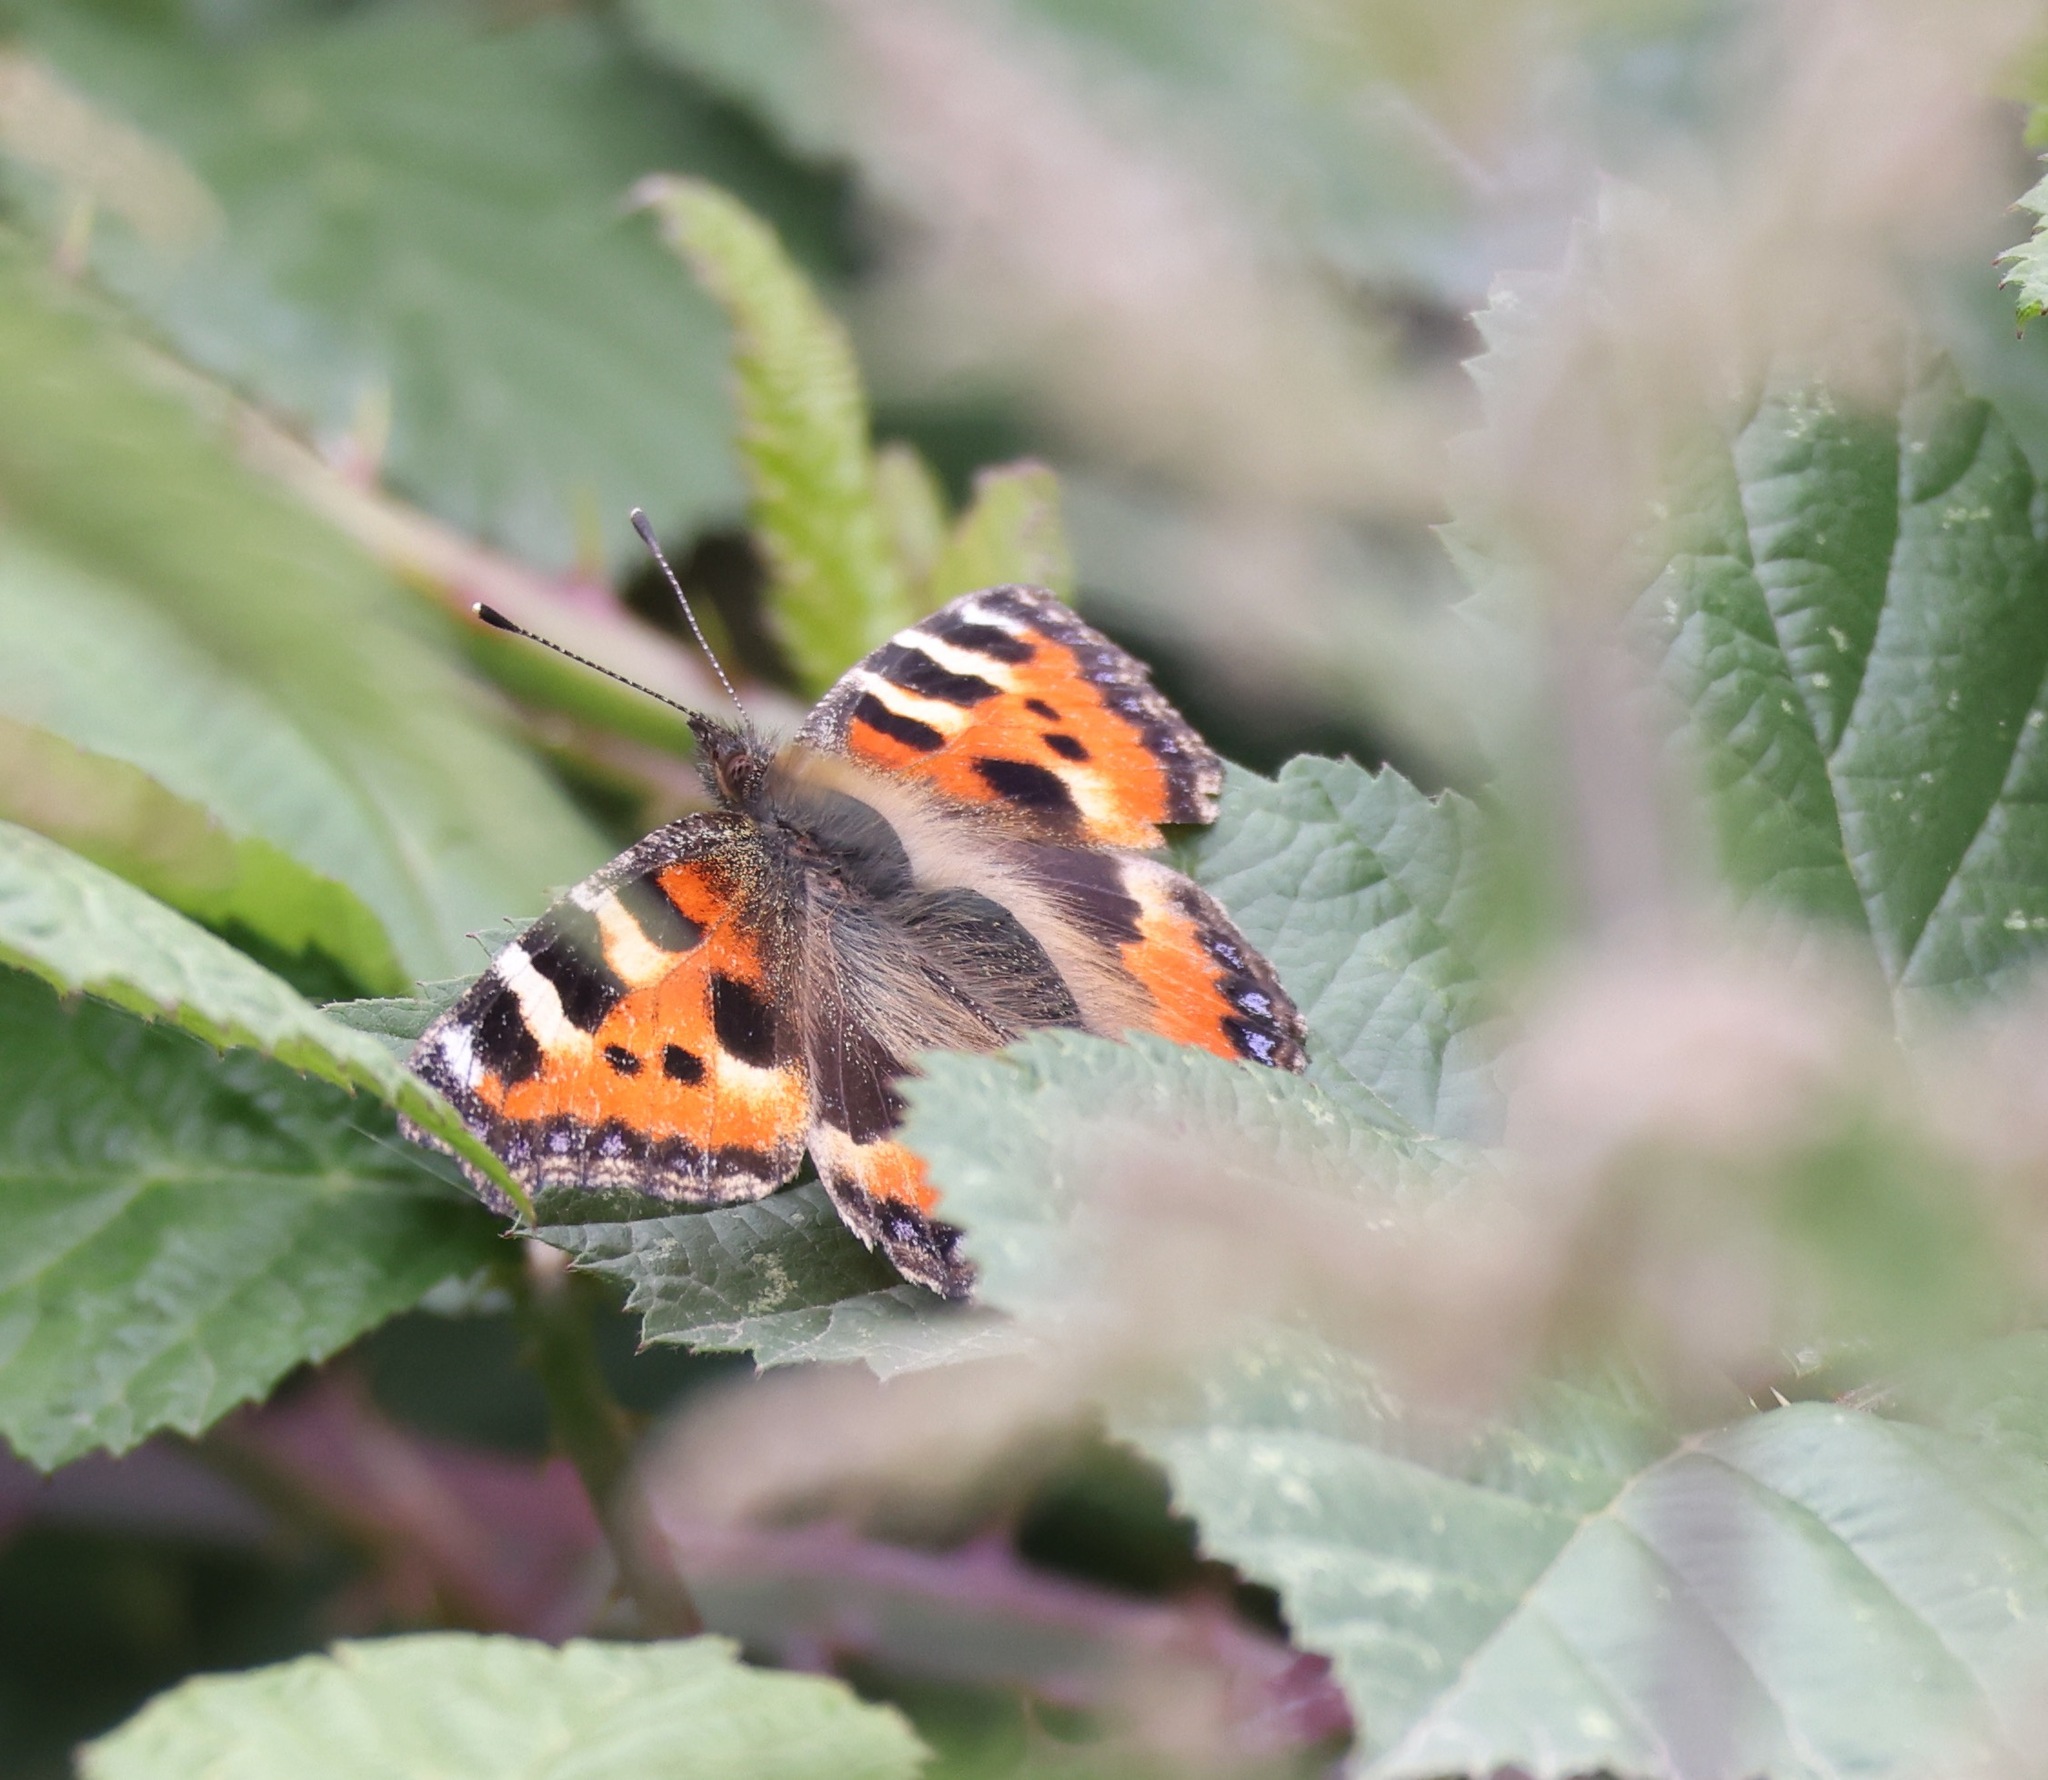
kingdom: Animalia
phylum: Arthropoda
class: Insecta
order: Lepidoptera
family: Nymphalidae
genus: Aglais
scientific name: Aglais urticae
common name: Small tortoiseshell
